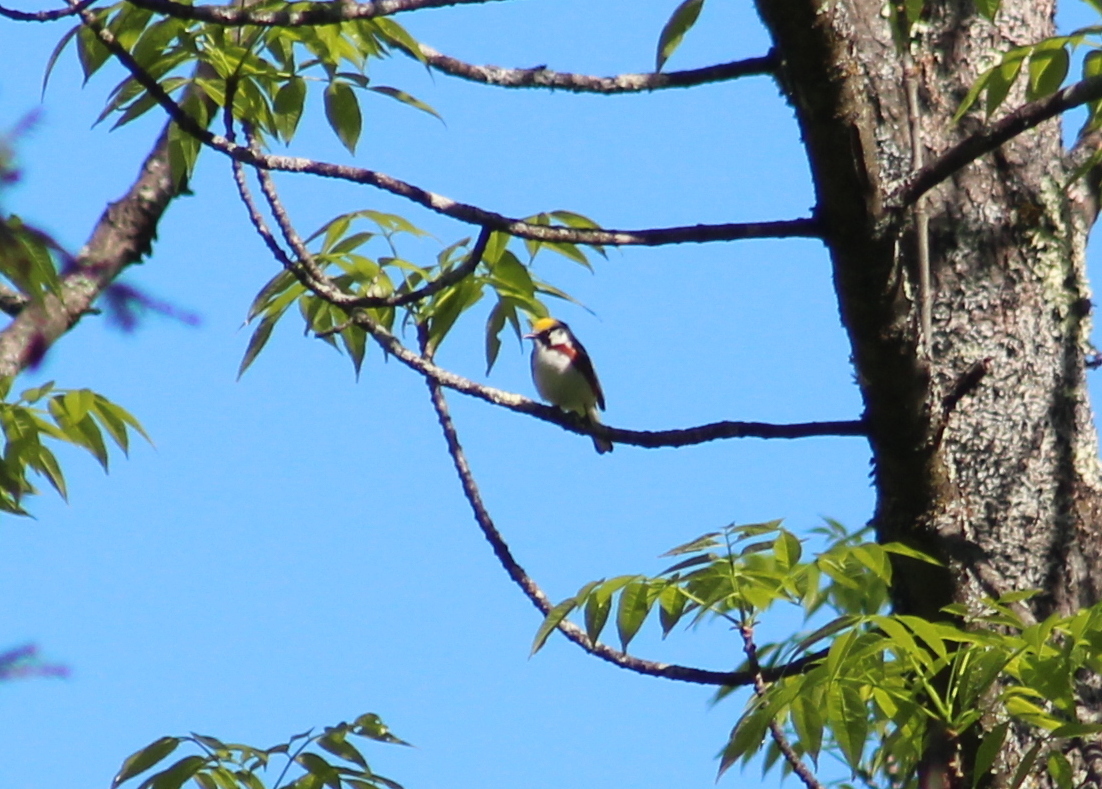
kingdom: Animalia
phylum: Chordata
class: Aves
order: Passeriformes
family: Parulidae
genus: Setophaga
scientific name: Setophaga pensylvanica
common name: Chestnut-sided warbler
